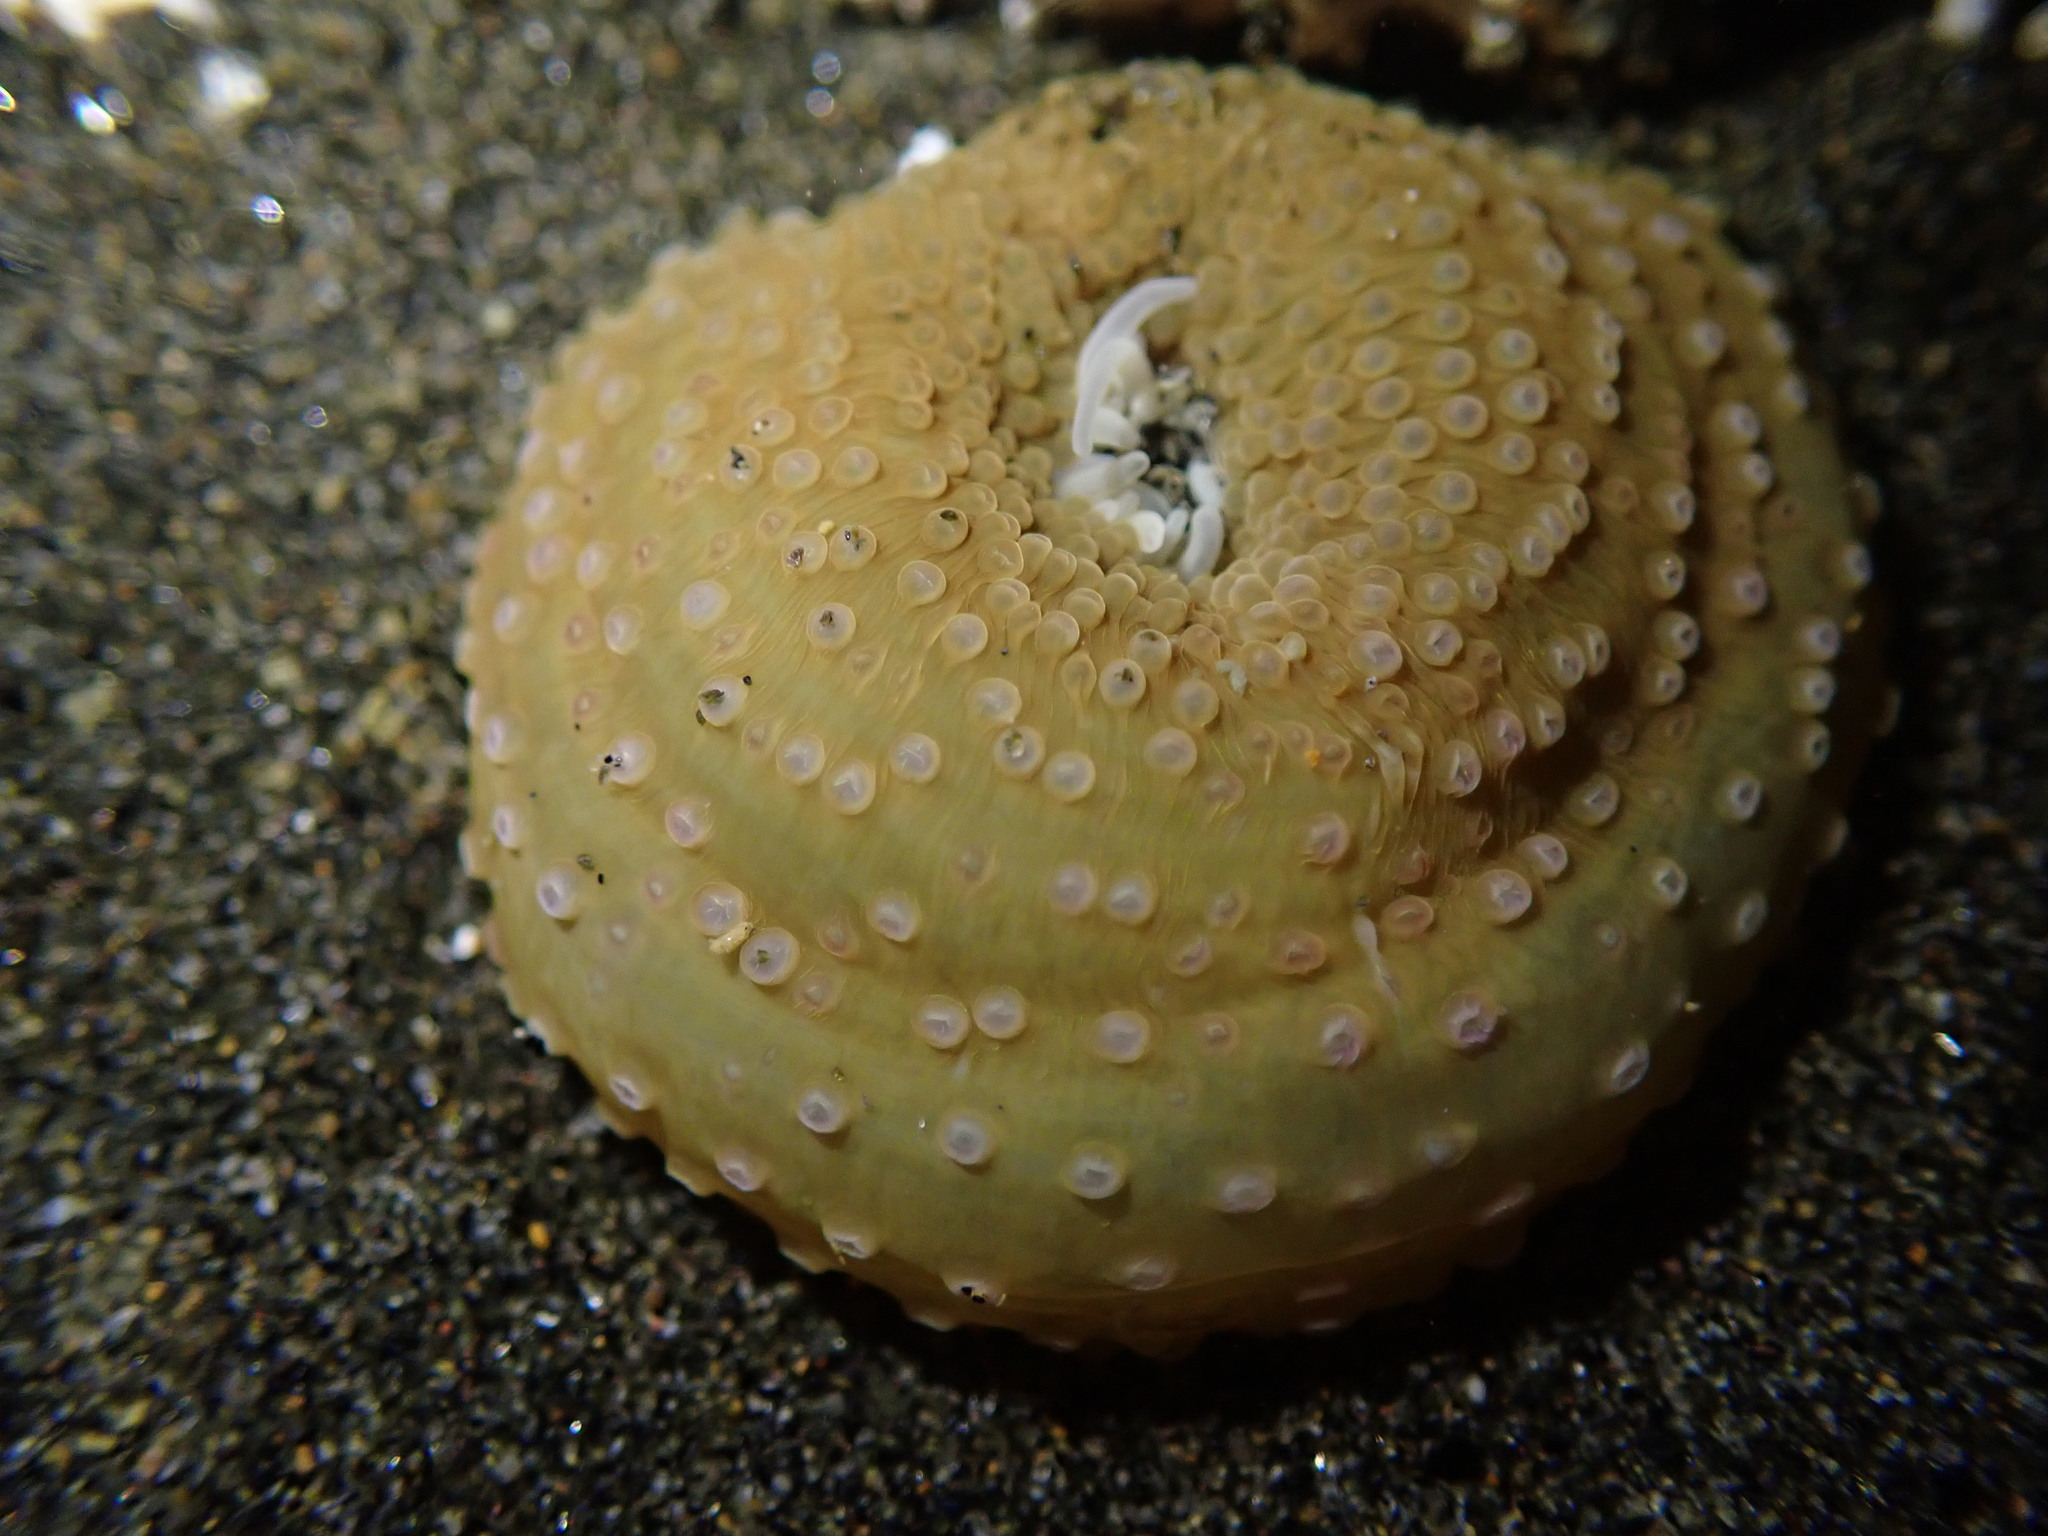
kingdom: Animalia
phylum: Cnidaria
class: Anthozoa
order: Actiniaria
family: Actiniidae
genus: Oulactis
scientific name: Oulactis magna
